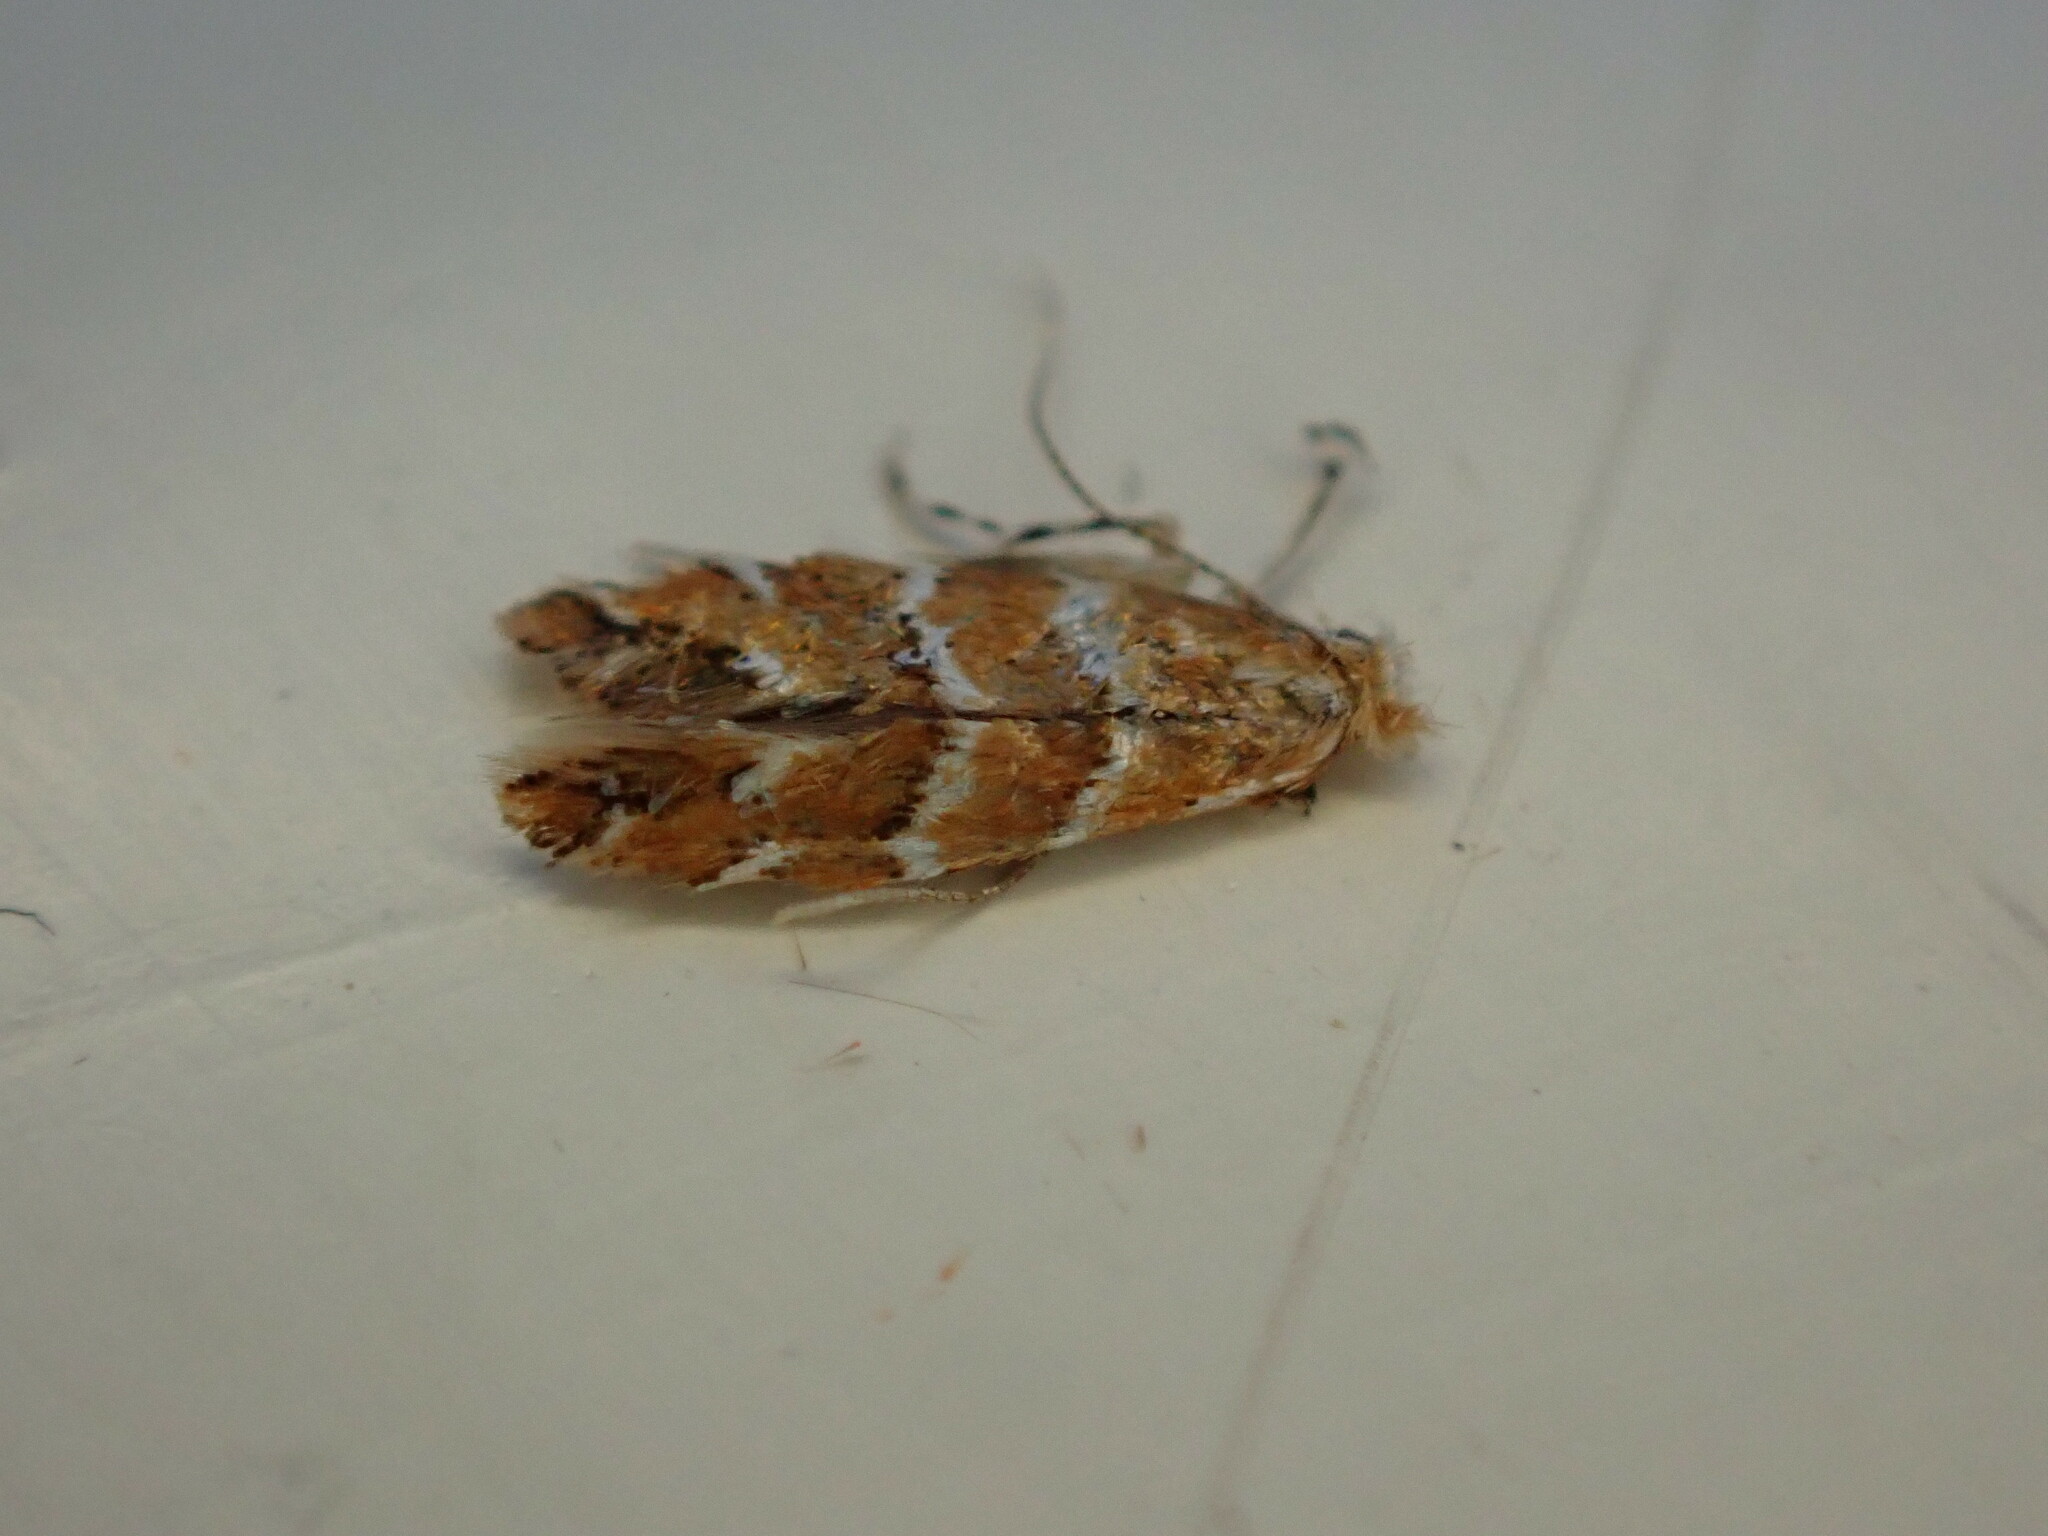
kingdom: Animalia
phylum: Arthropoda
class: Insecta
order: Lepidoptera
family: Gracillariidae
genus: Cameraria
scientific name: Cameraria ohridella
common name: Horse-chestnut leaf-miner
